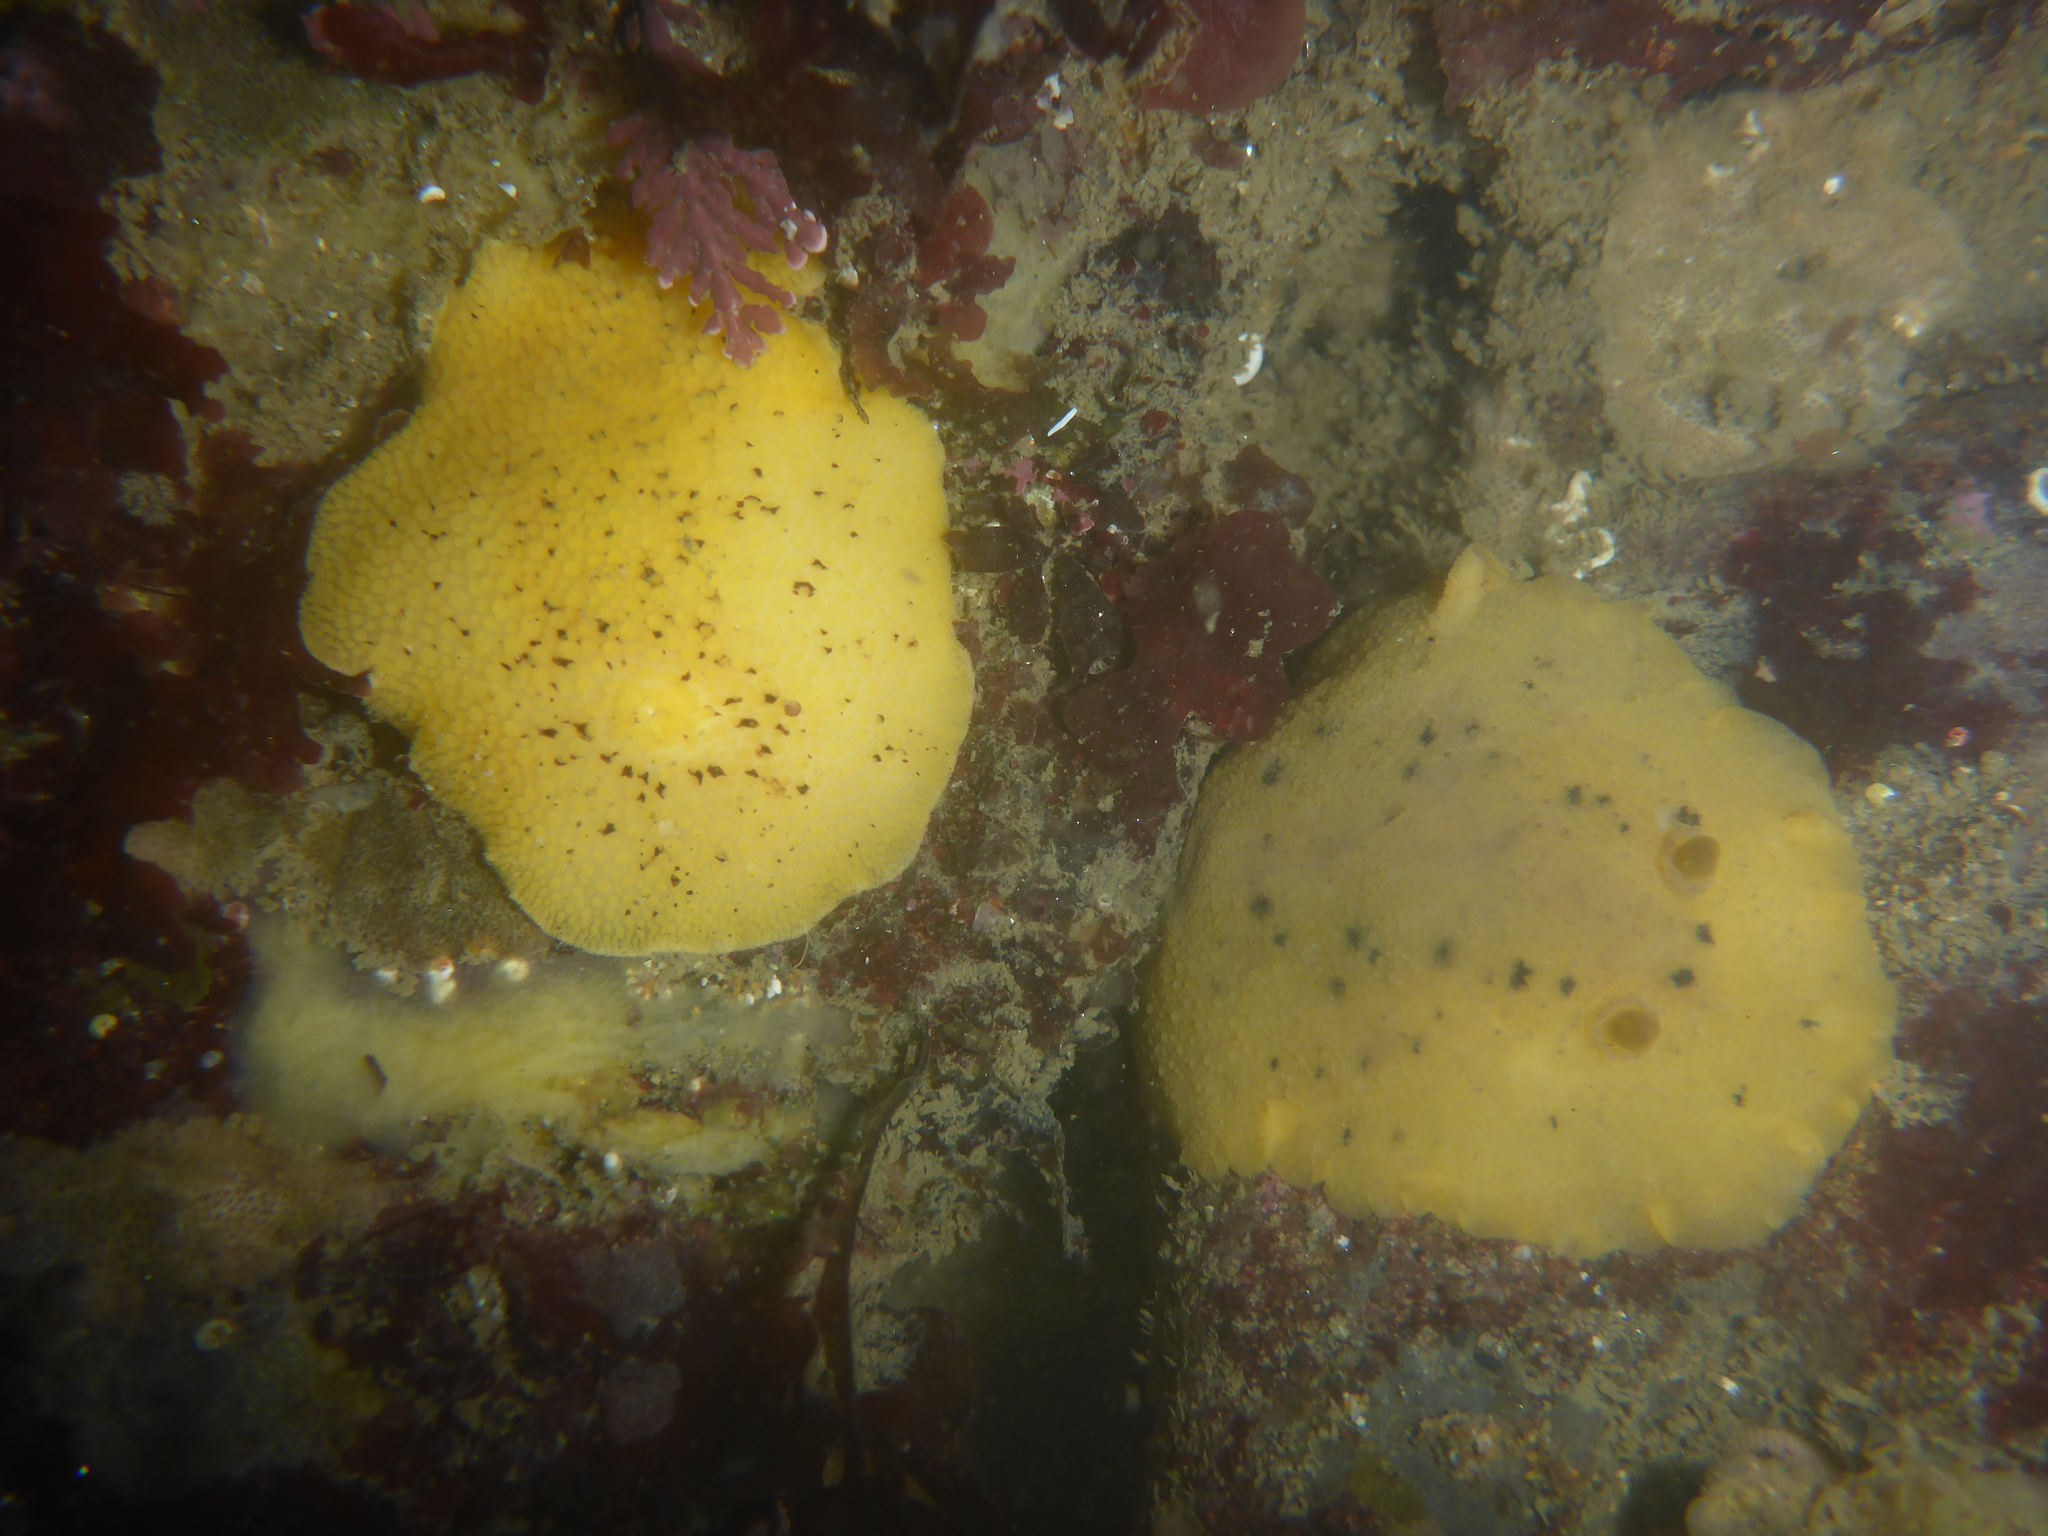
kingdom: Animalia
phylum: Mollusca
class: Gastropoda
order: Nudibranchia
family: Discodorididae
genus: Peltodoris
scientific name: Peltodoris nobilis
